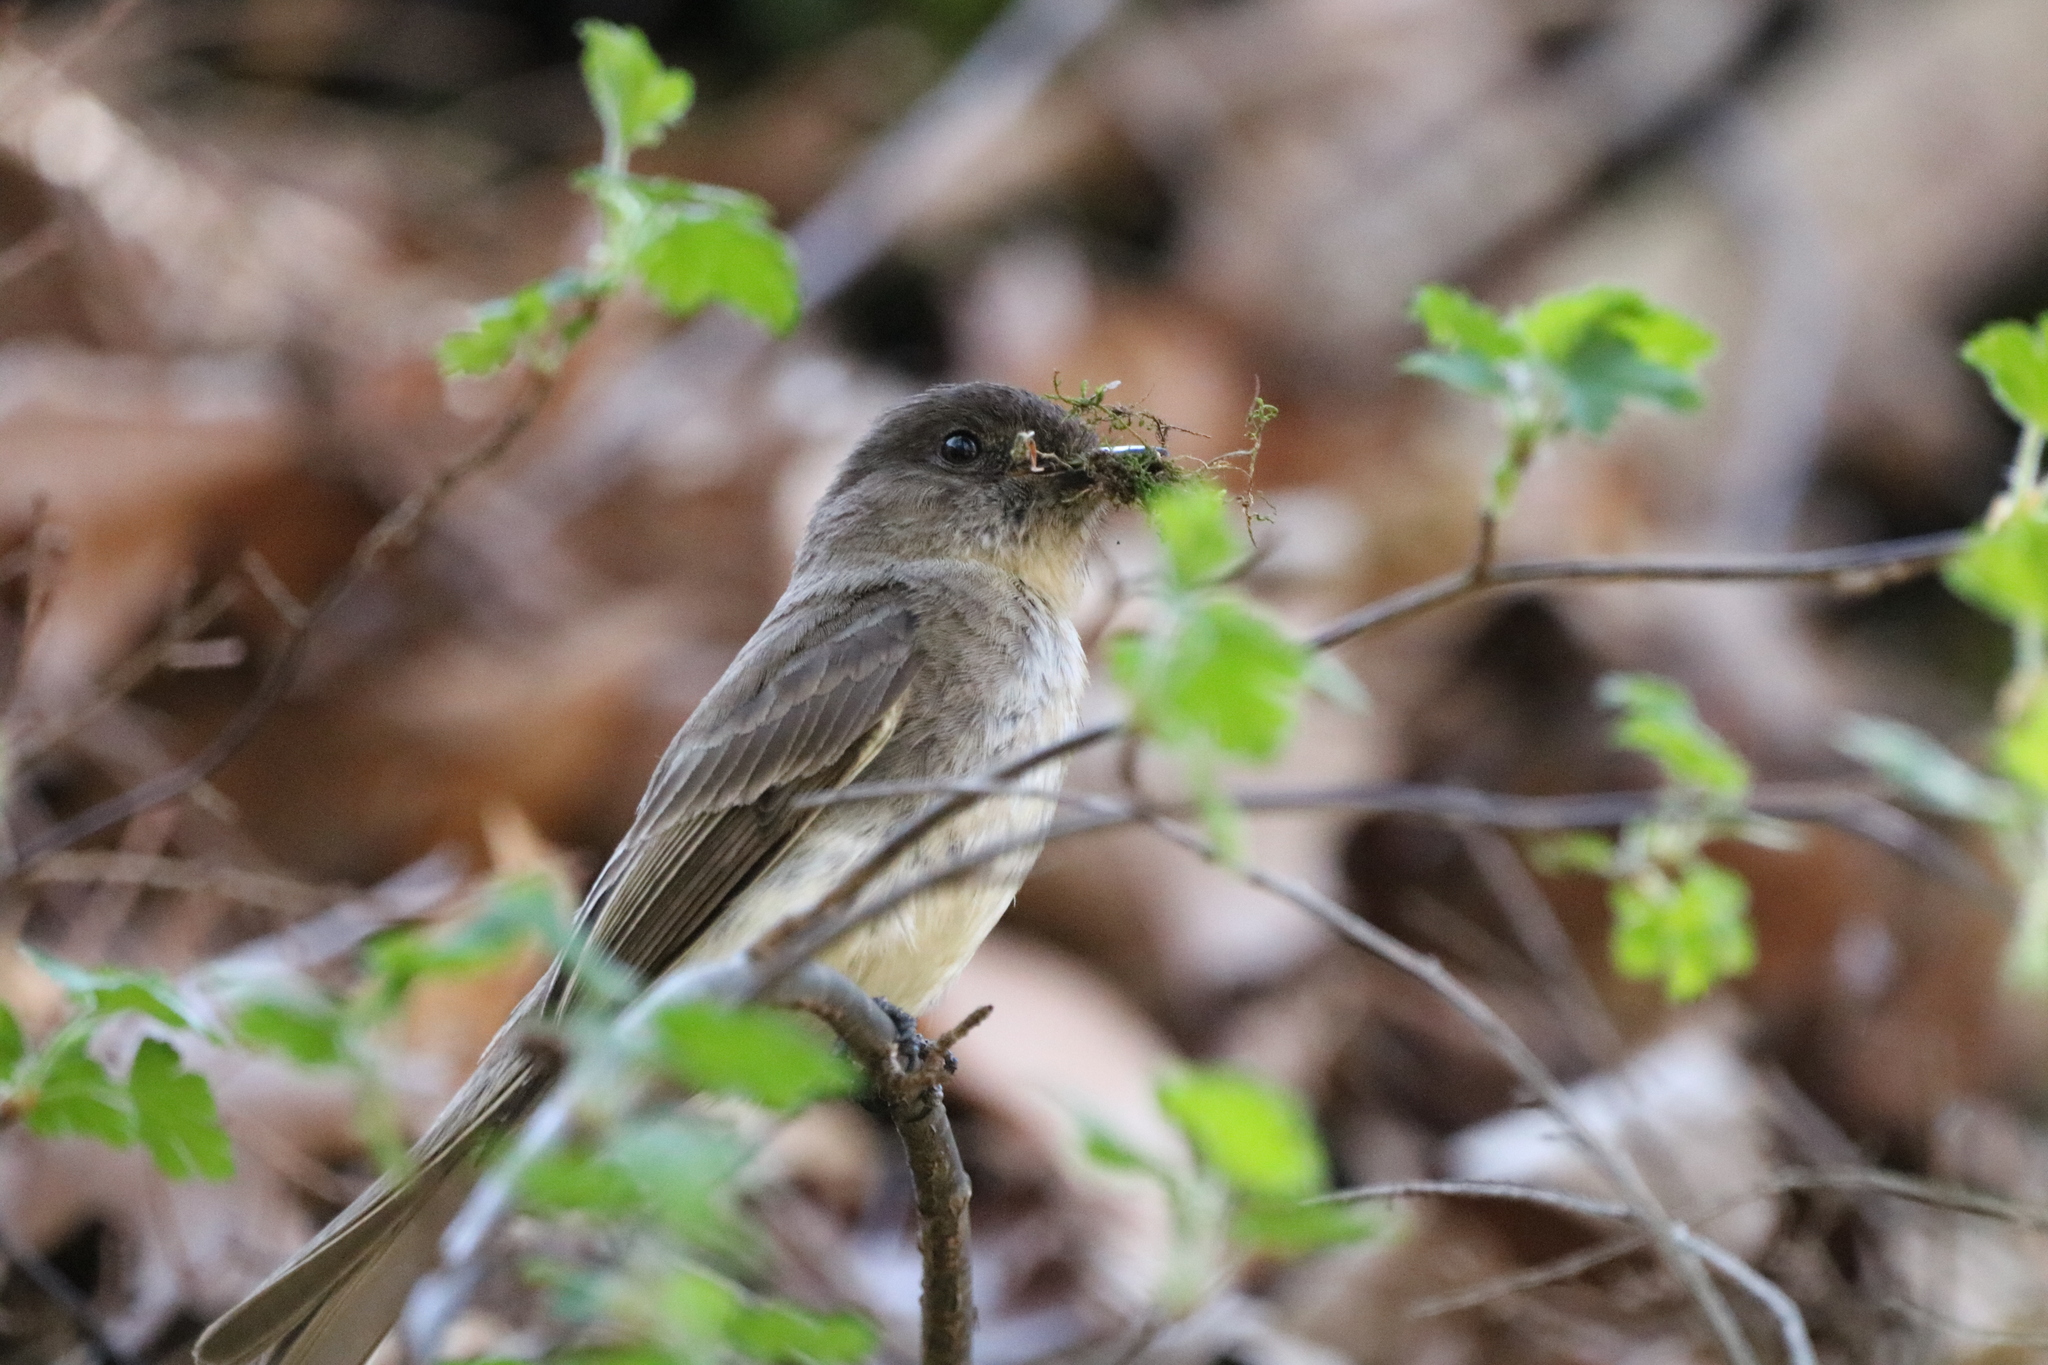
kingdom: Animalia
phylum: Chordata
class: Aves
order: Passeriformes
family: Tyrannidae
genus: Sayornis
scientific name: Sayornis phoebe
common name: Eastern phoebe
